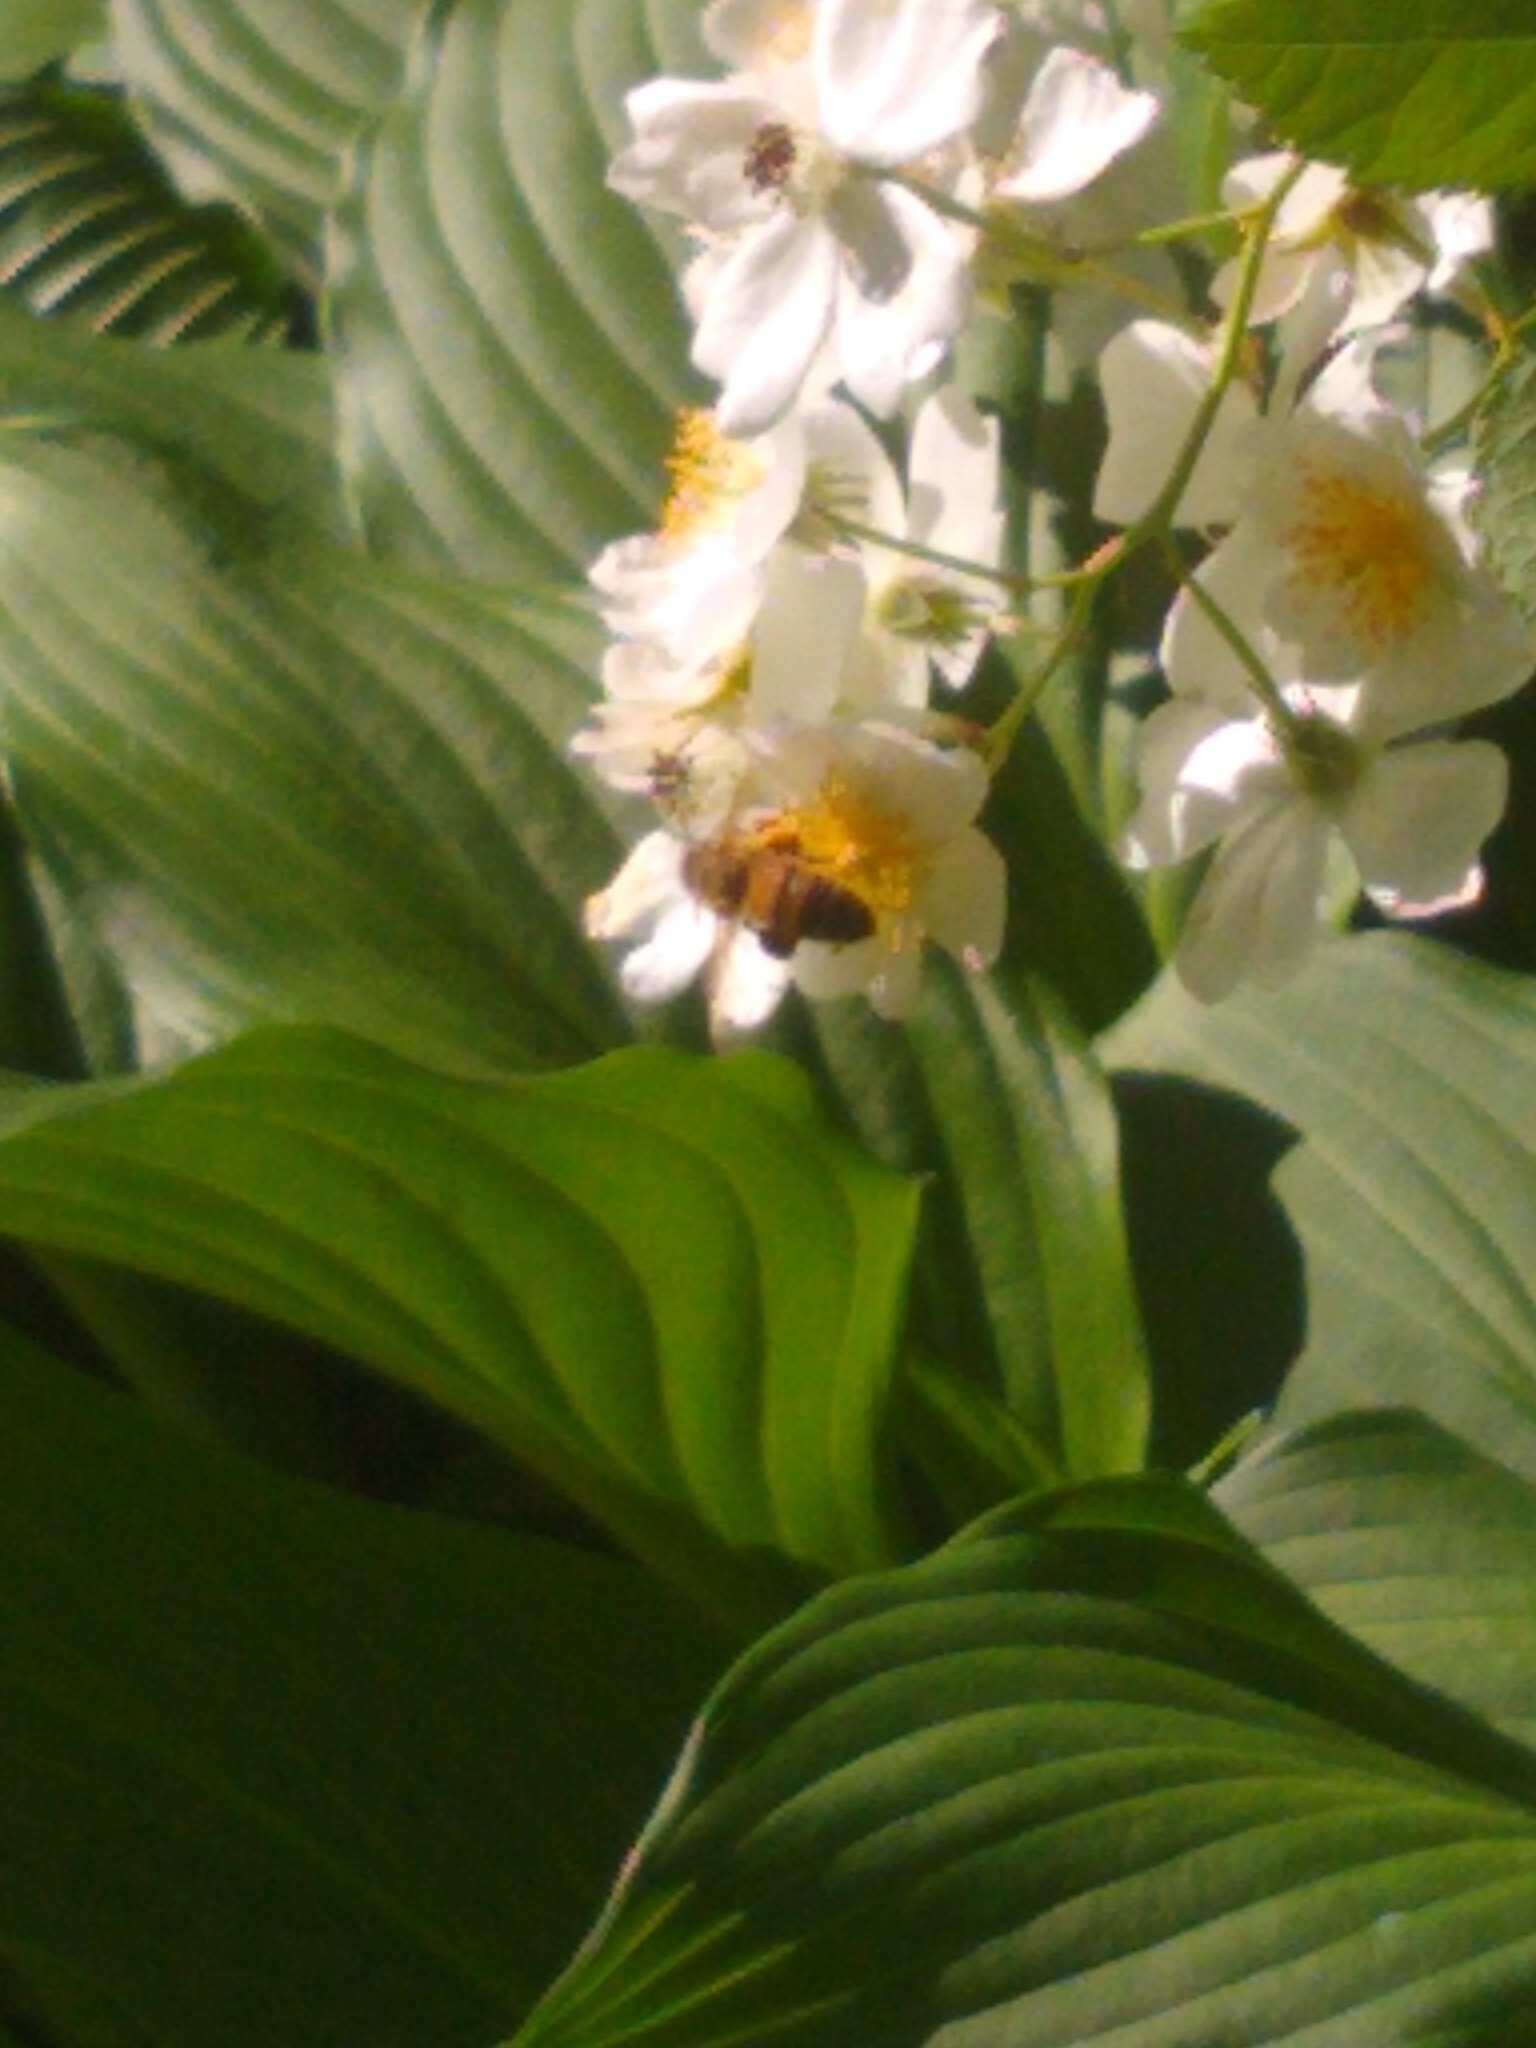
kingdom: Animalia
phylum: Arthropoda
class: Insecta
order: Hymenoptera
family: Apidae
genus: Apis
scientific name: Apis mellifera
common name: Honey bee
